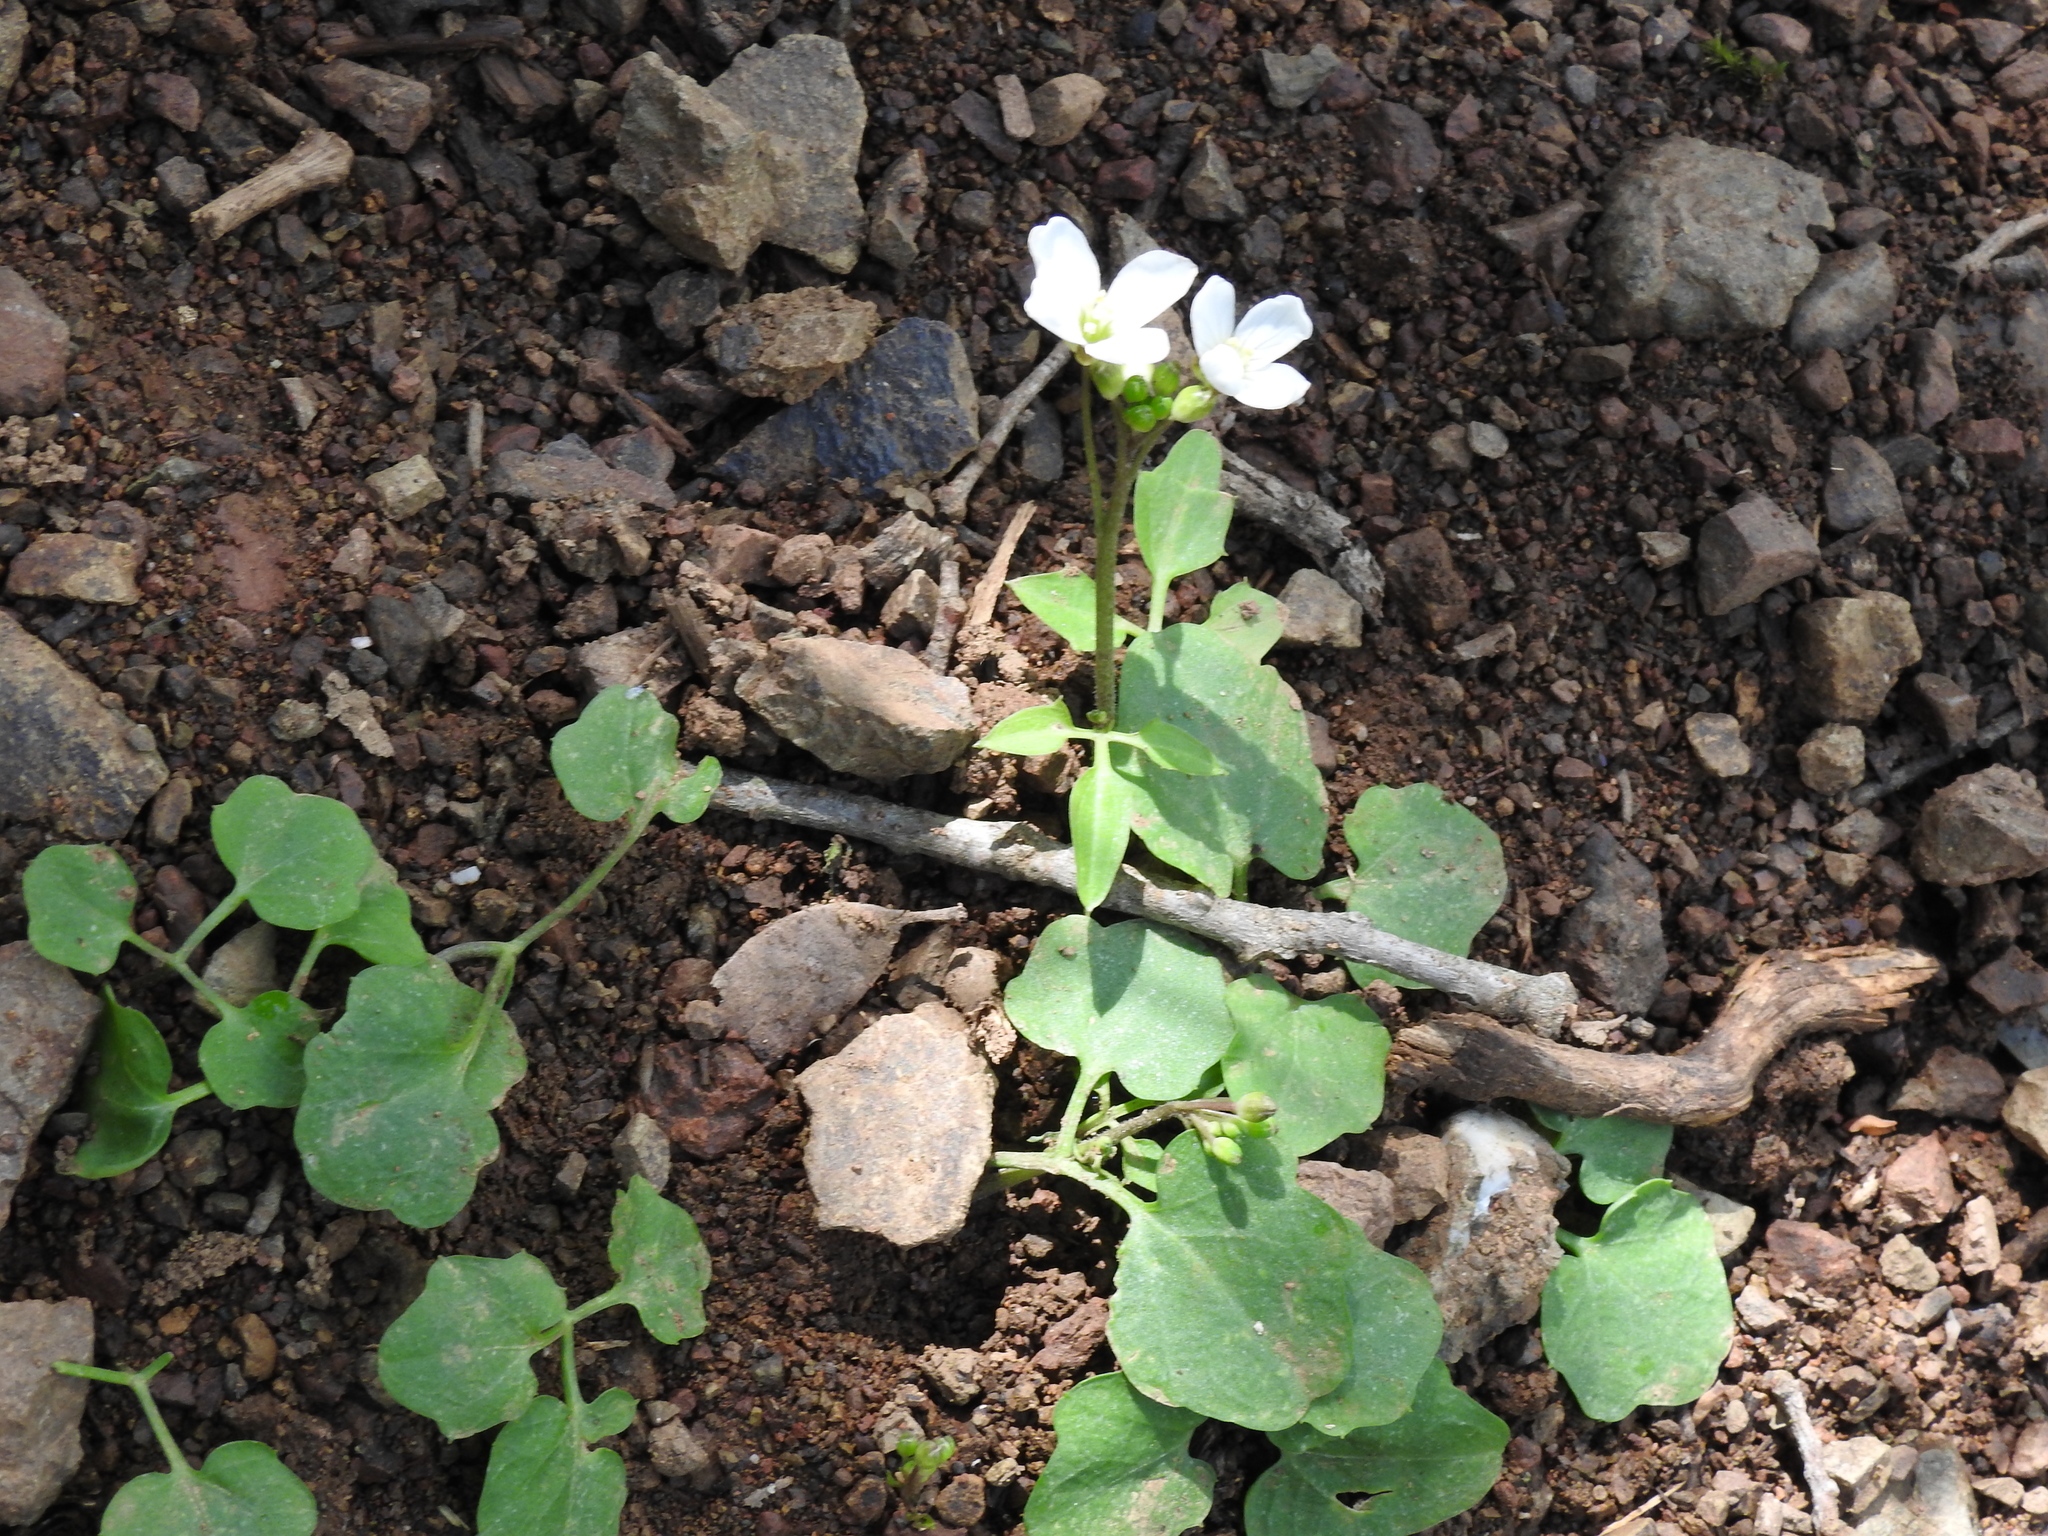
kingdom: Plantae
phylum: Tracheophyta
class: Magnoliopsida
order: Brassicales
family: Brassicaceae
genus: Cardamine
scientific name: Cardamine californica
